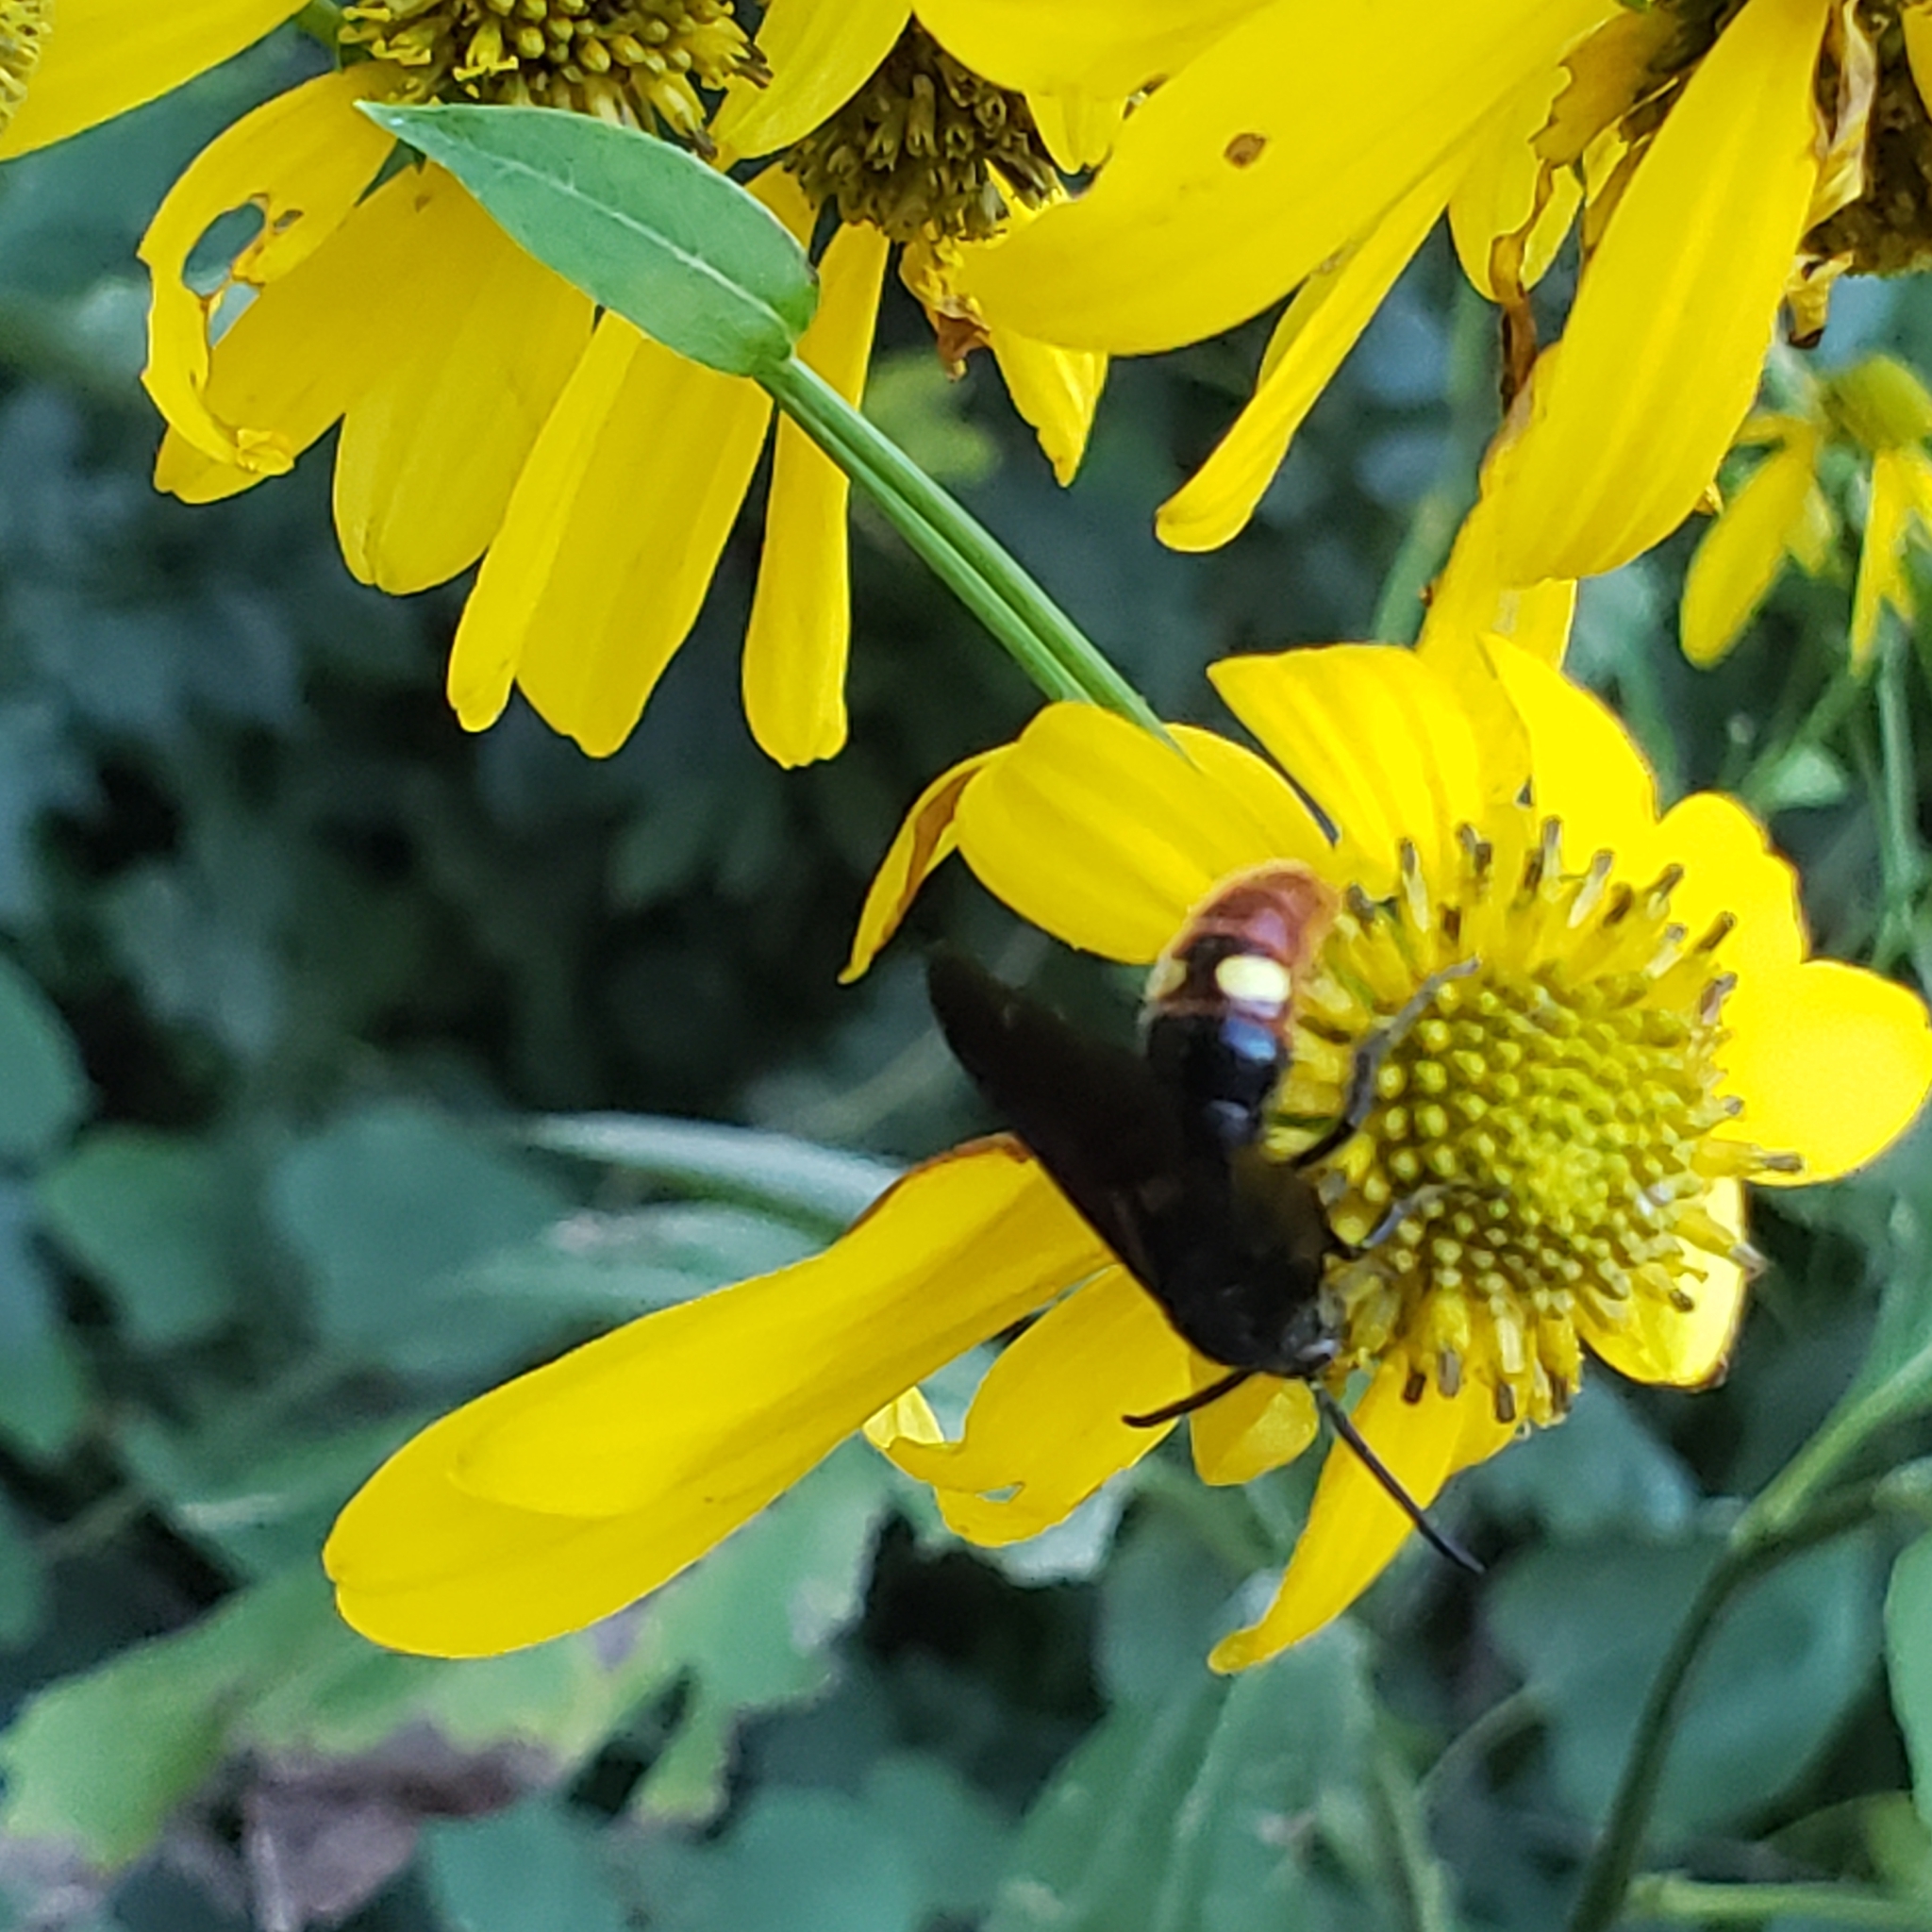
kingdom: Animalia
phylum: Arthropoda
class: Insecta
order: Hymenoptera
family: Scoliidae
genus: Scolia
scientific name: Scolia dubia
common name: Blue-winged scoliid wasp
